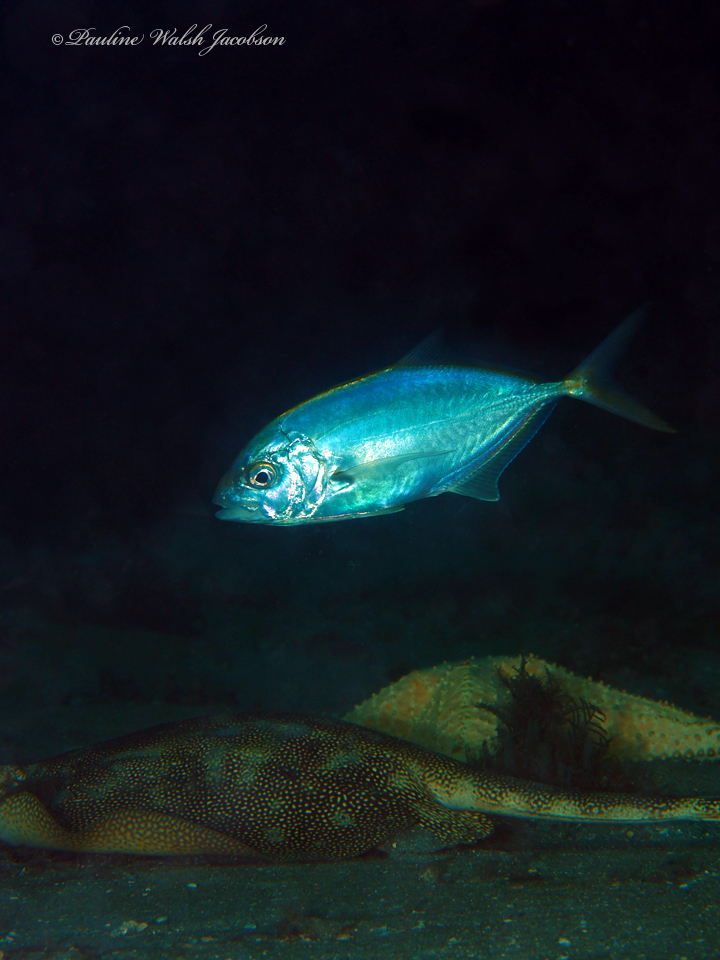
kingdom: Animalia
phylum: Chordata
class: Elasmobranchii
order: Myliobatiformes
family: Urotrygonidae
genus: Urobatis
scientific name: Urobatis jamaicensis
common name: Yellow stingray
